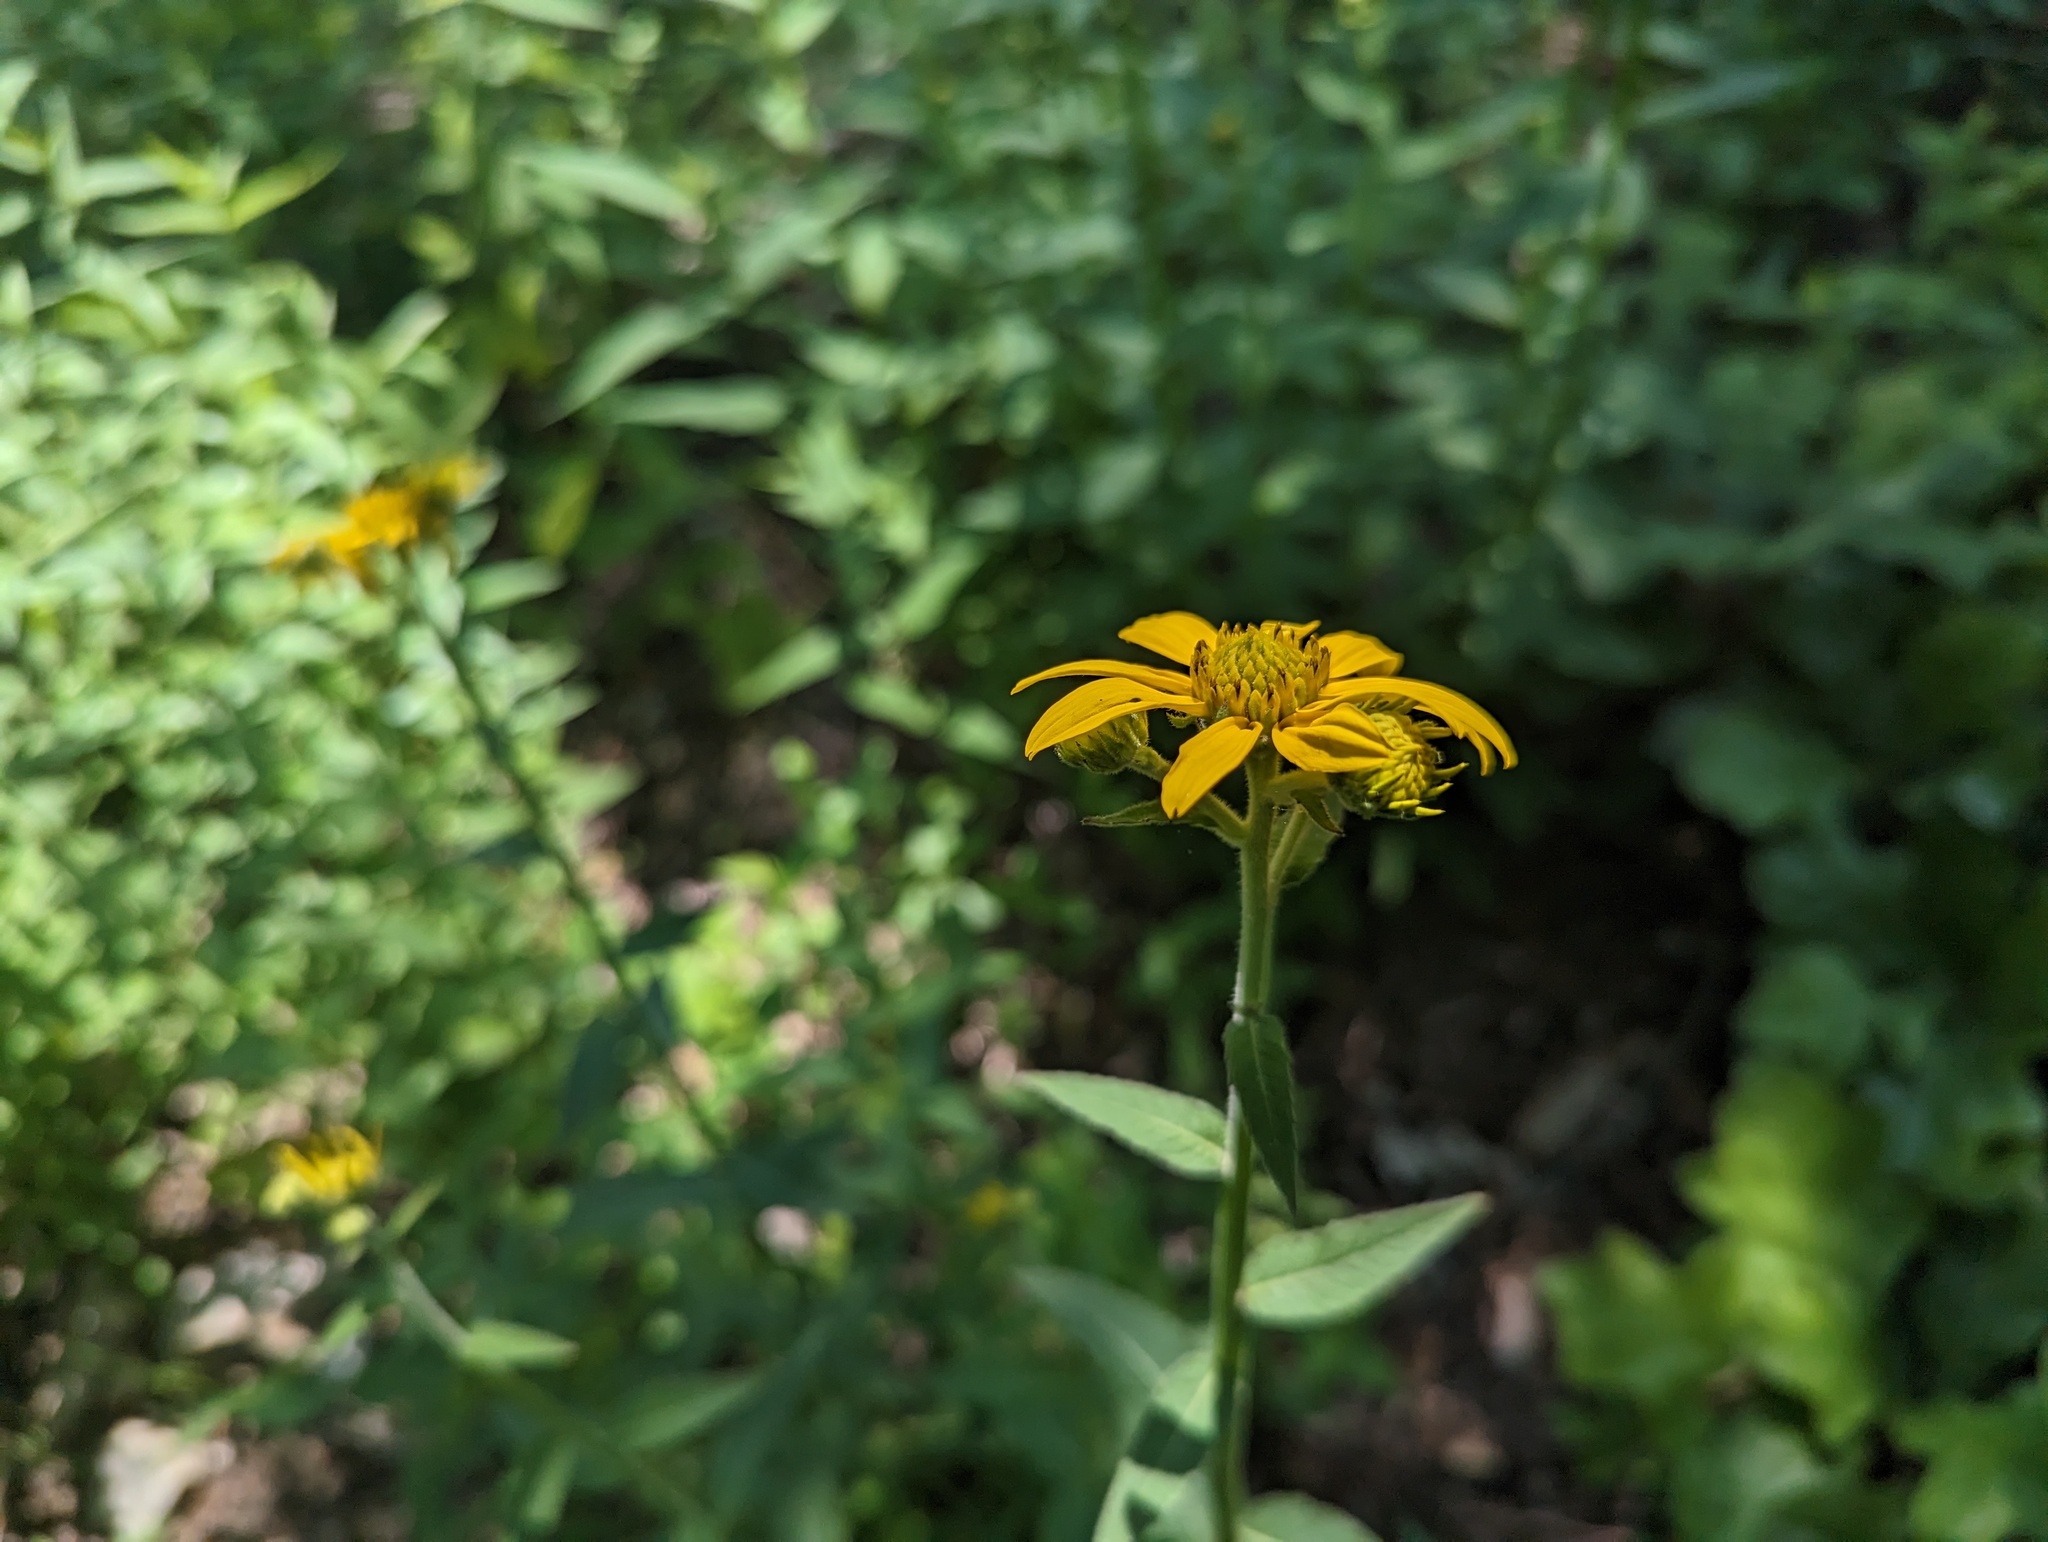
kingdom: Plantae
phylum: Tracheophyta
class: Magnoliopsida
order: Asterales
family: Asteraceae
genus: Verbesina
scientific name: Verbesina helianthoides
